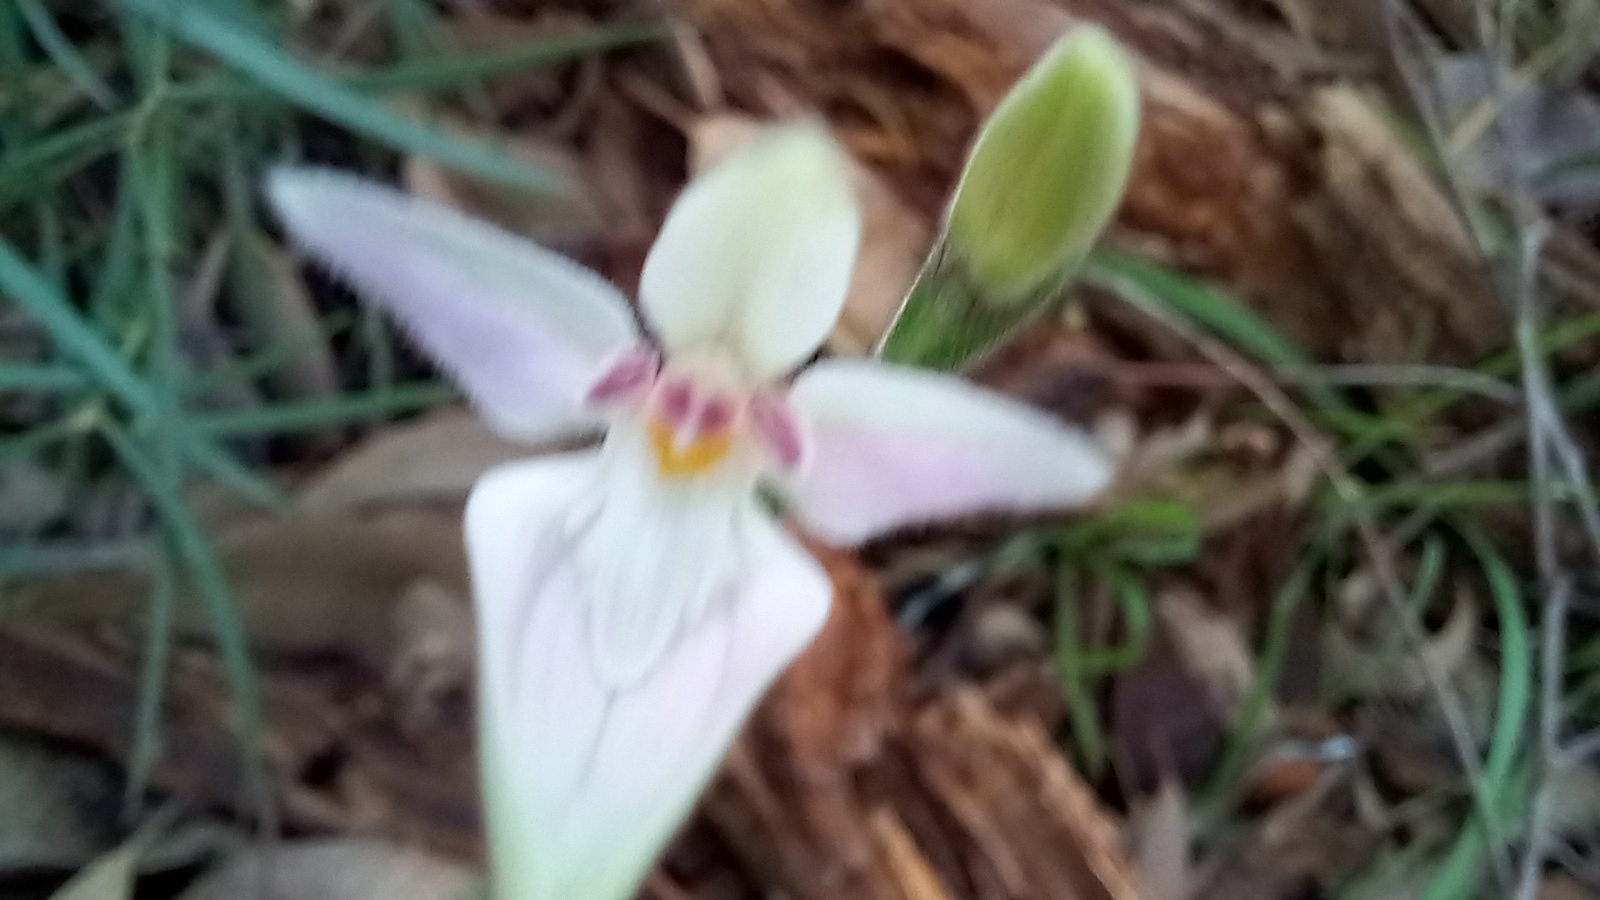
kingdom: Plantae
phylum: Tracheophyta
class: Liliopsida
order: Asparagales
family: Orchidaceae
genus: Caladenia
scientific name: Caladenia latifolia
